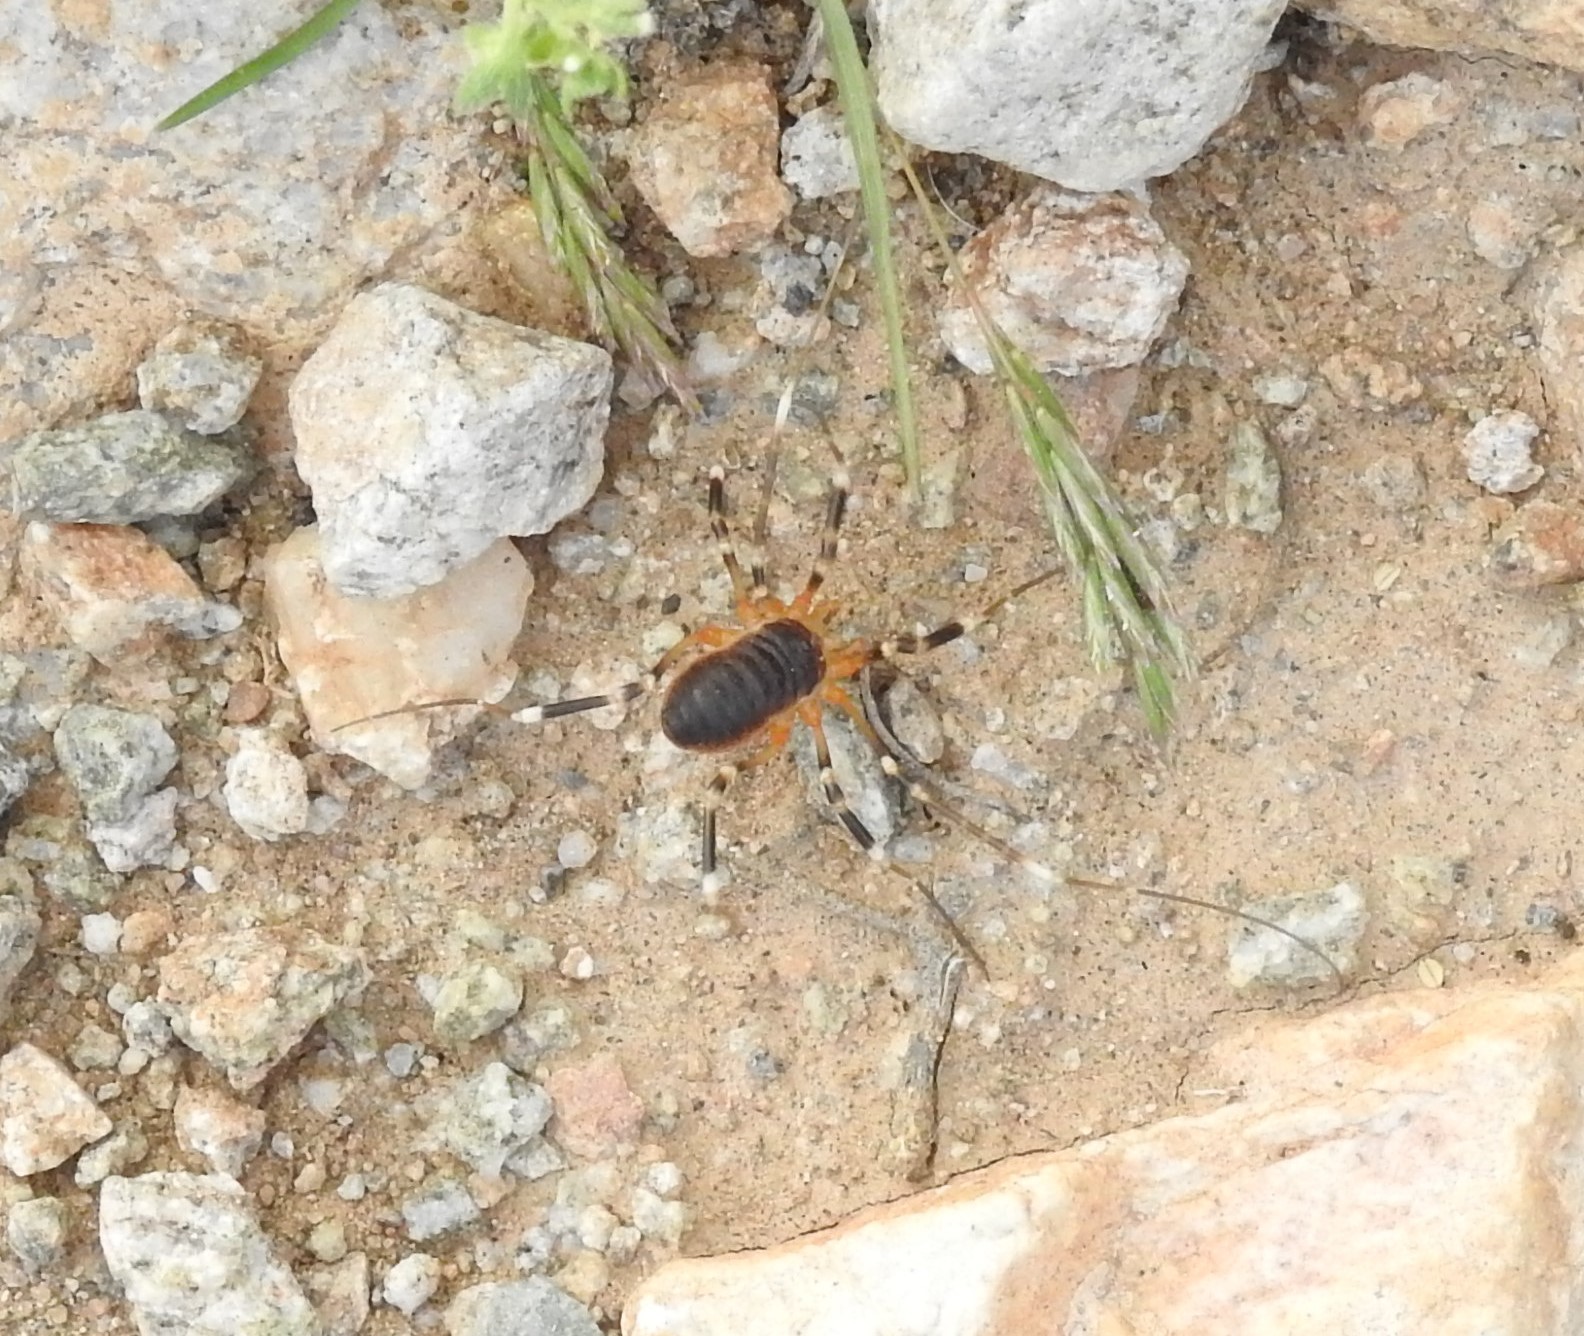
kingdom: Animalia
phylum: Arthropoda
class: Arachnida
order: Opiliones
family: Globipedidae
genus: Eurybunus
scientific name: Eurybunus
